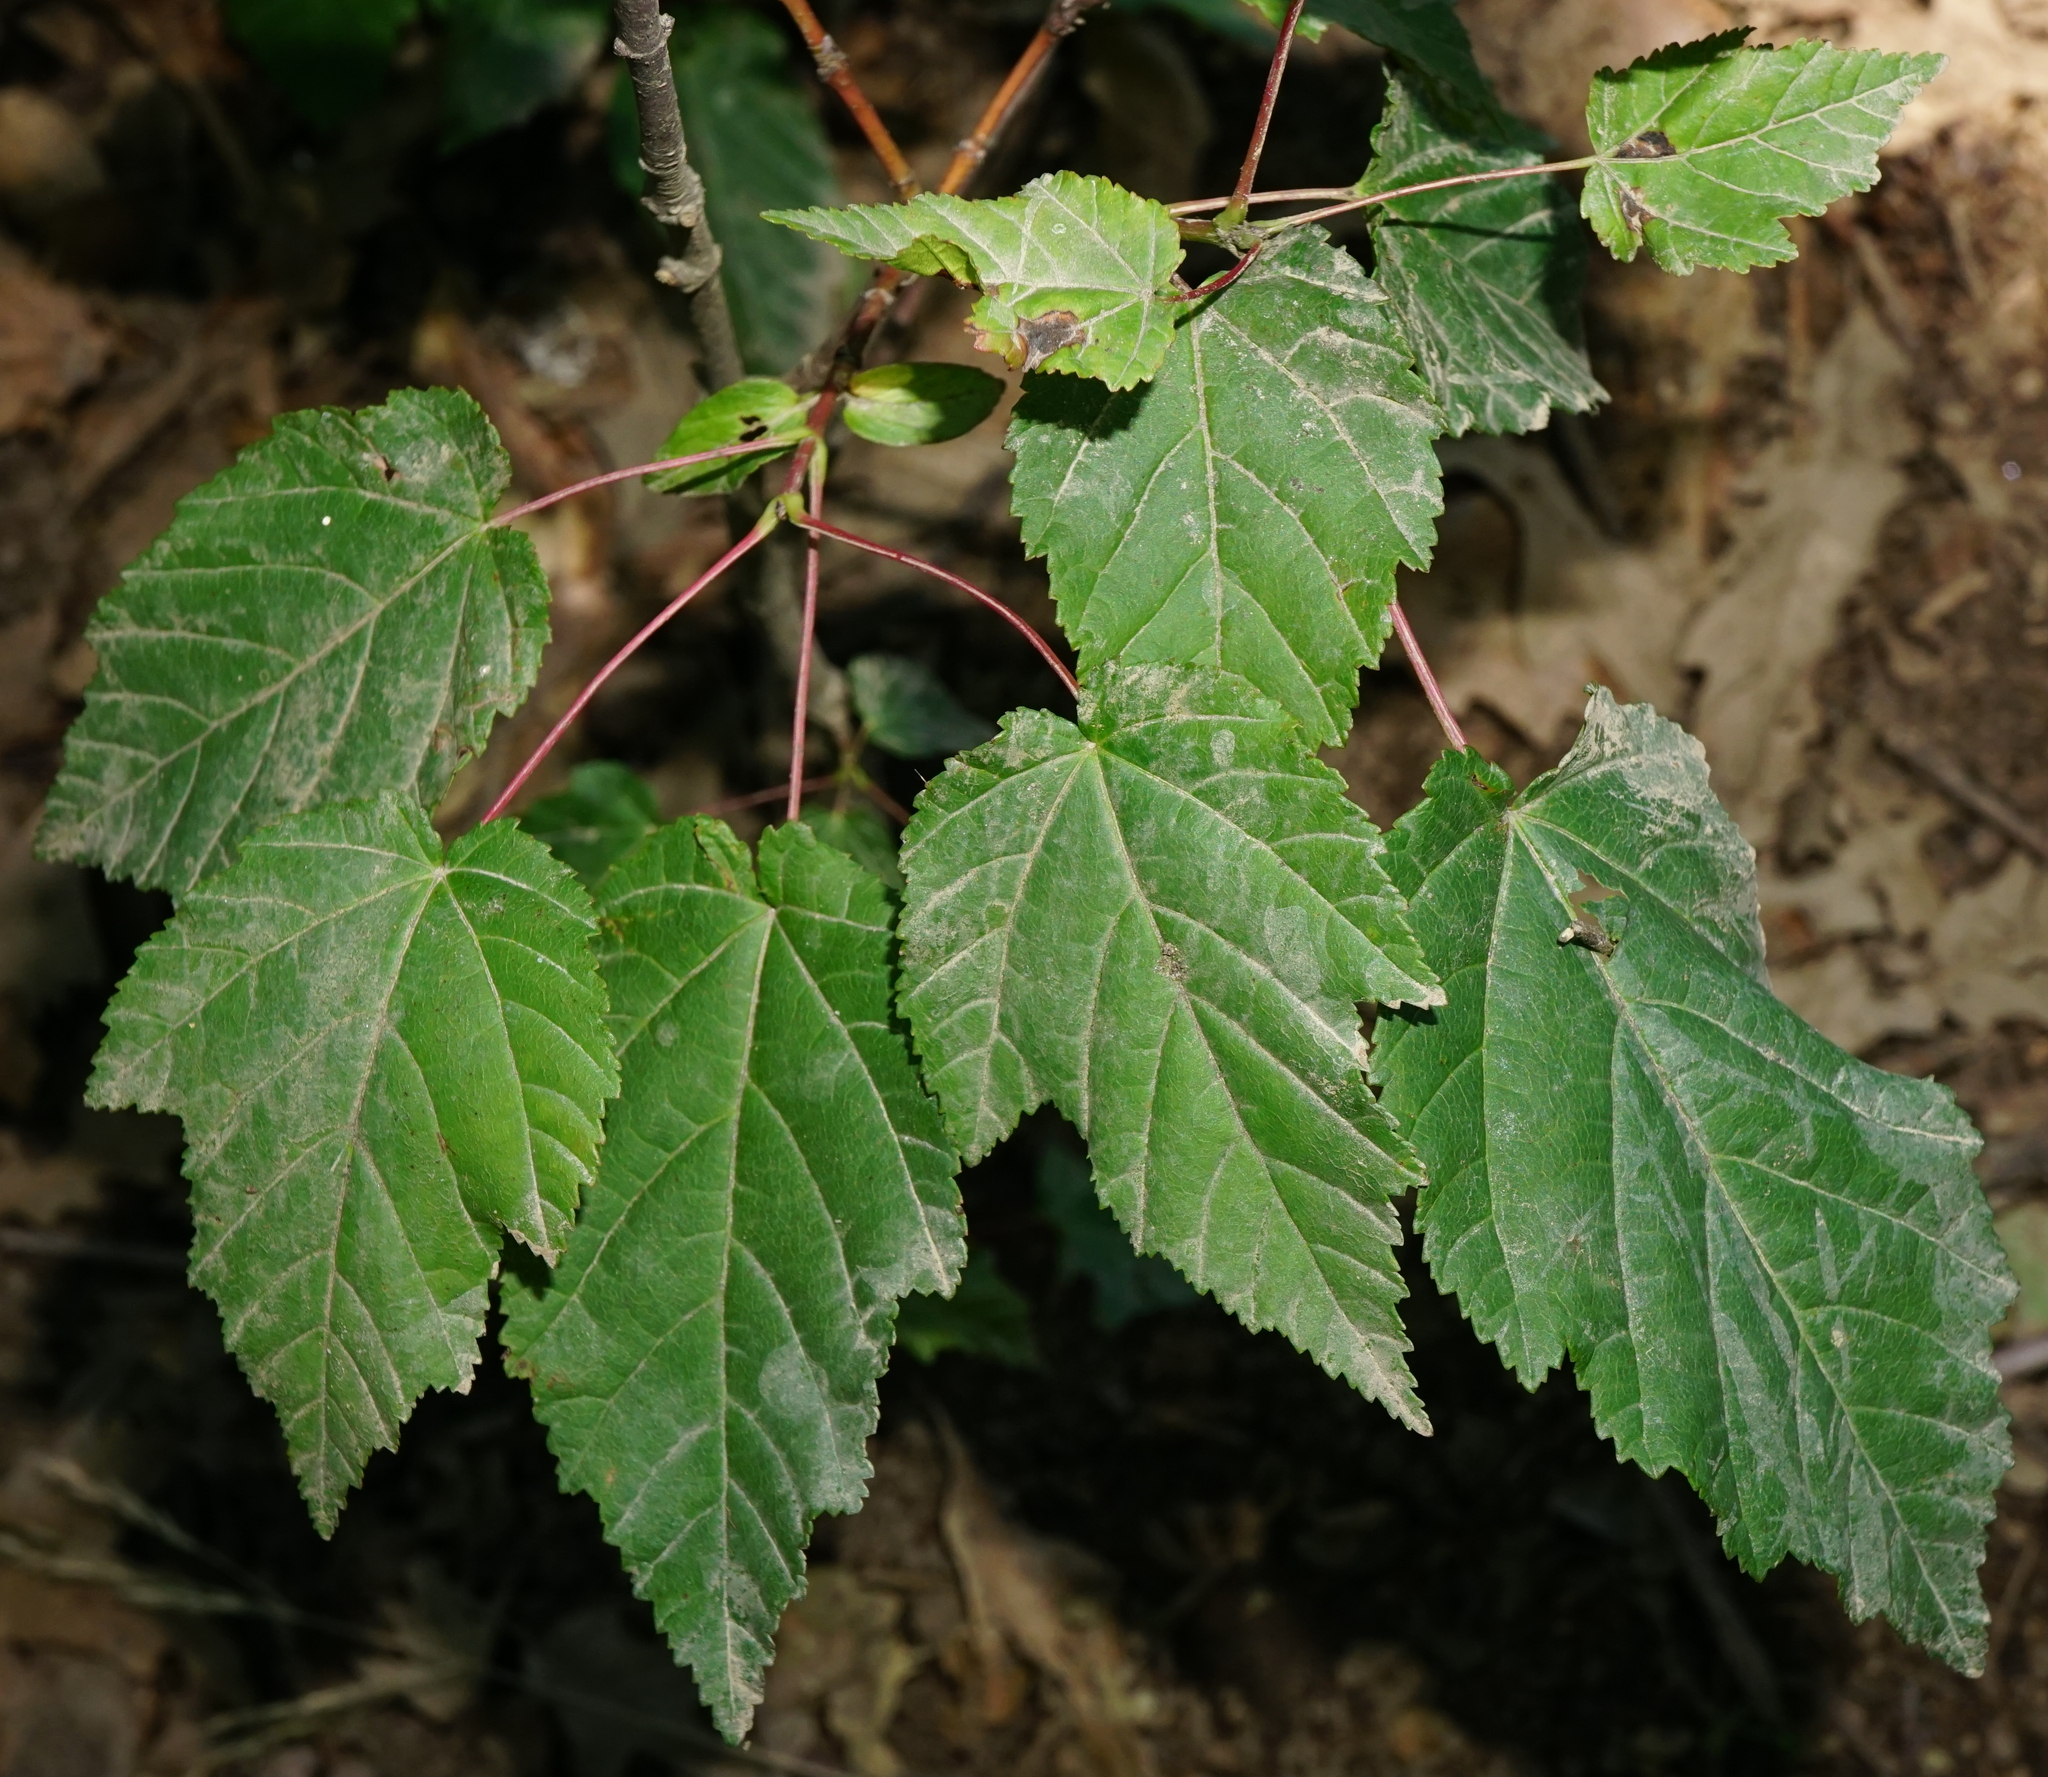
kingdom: Plantae
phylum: Tracheophyta
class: Magnoliopsida
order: Sapindales
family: Sapindaceae
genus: Acer
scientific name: Acer tataricum
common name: Tartar maple
